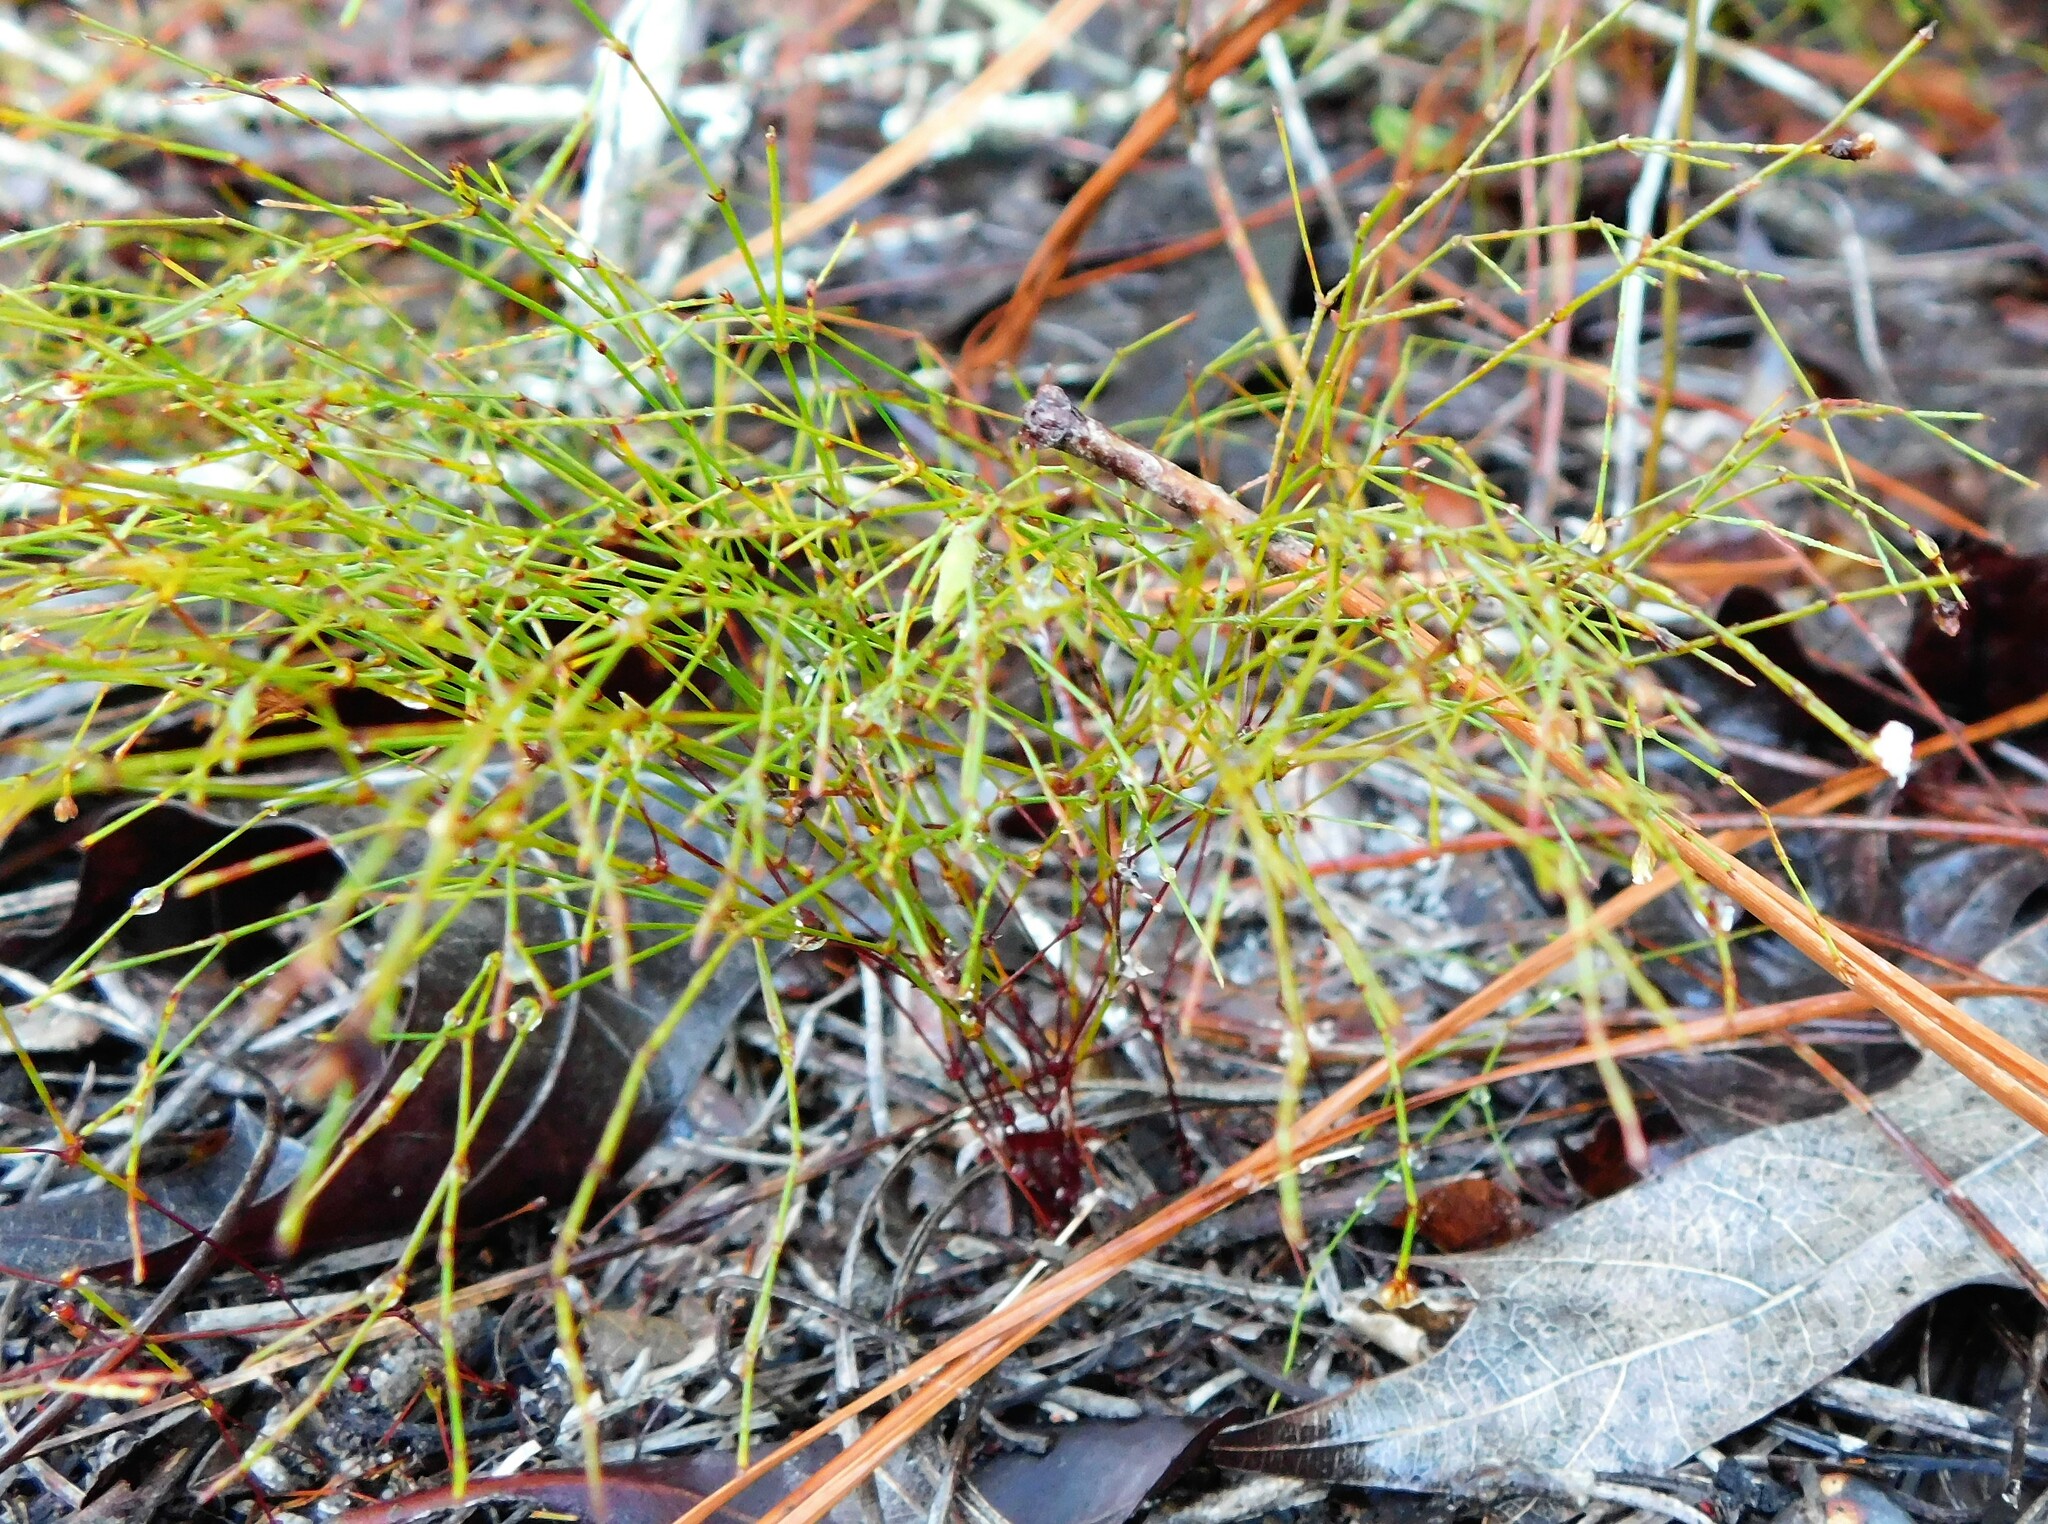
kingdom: Plantae
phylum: Tracheophyta
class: Magnoliopsida
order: Caryophyllales
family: Caryophyllaceae
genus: Stipulicida
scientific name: Stipulicida setacea
